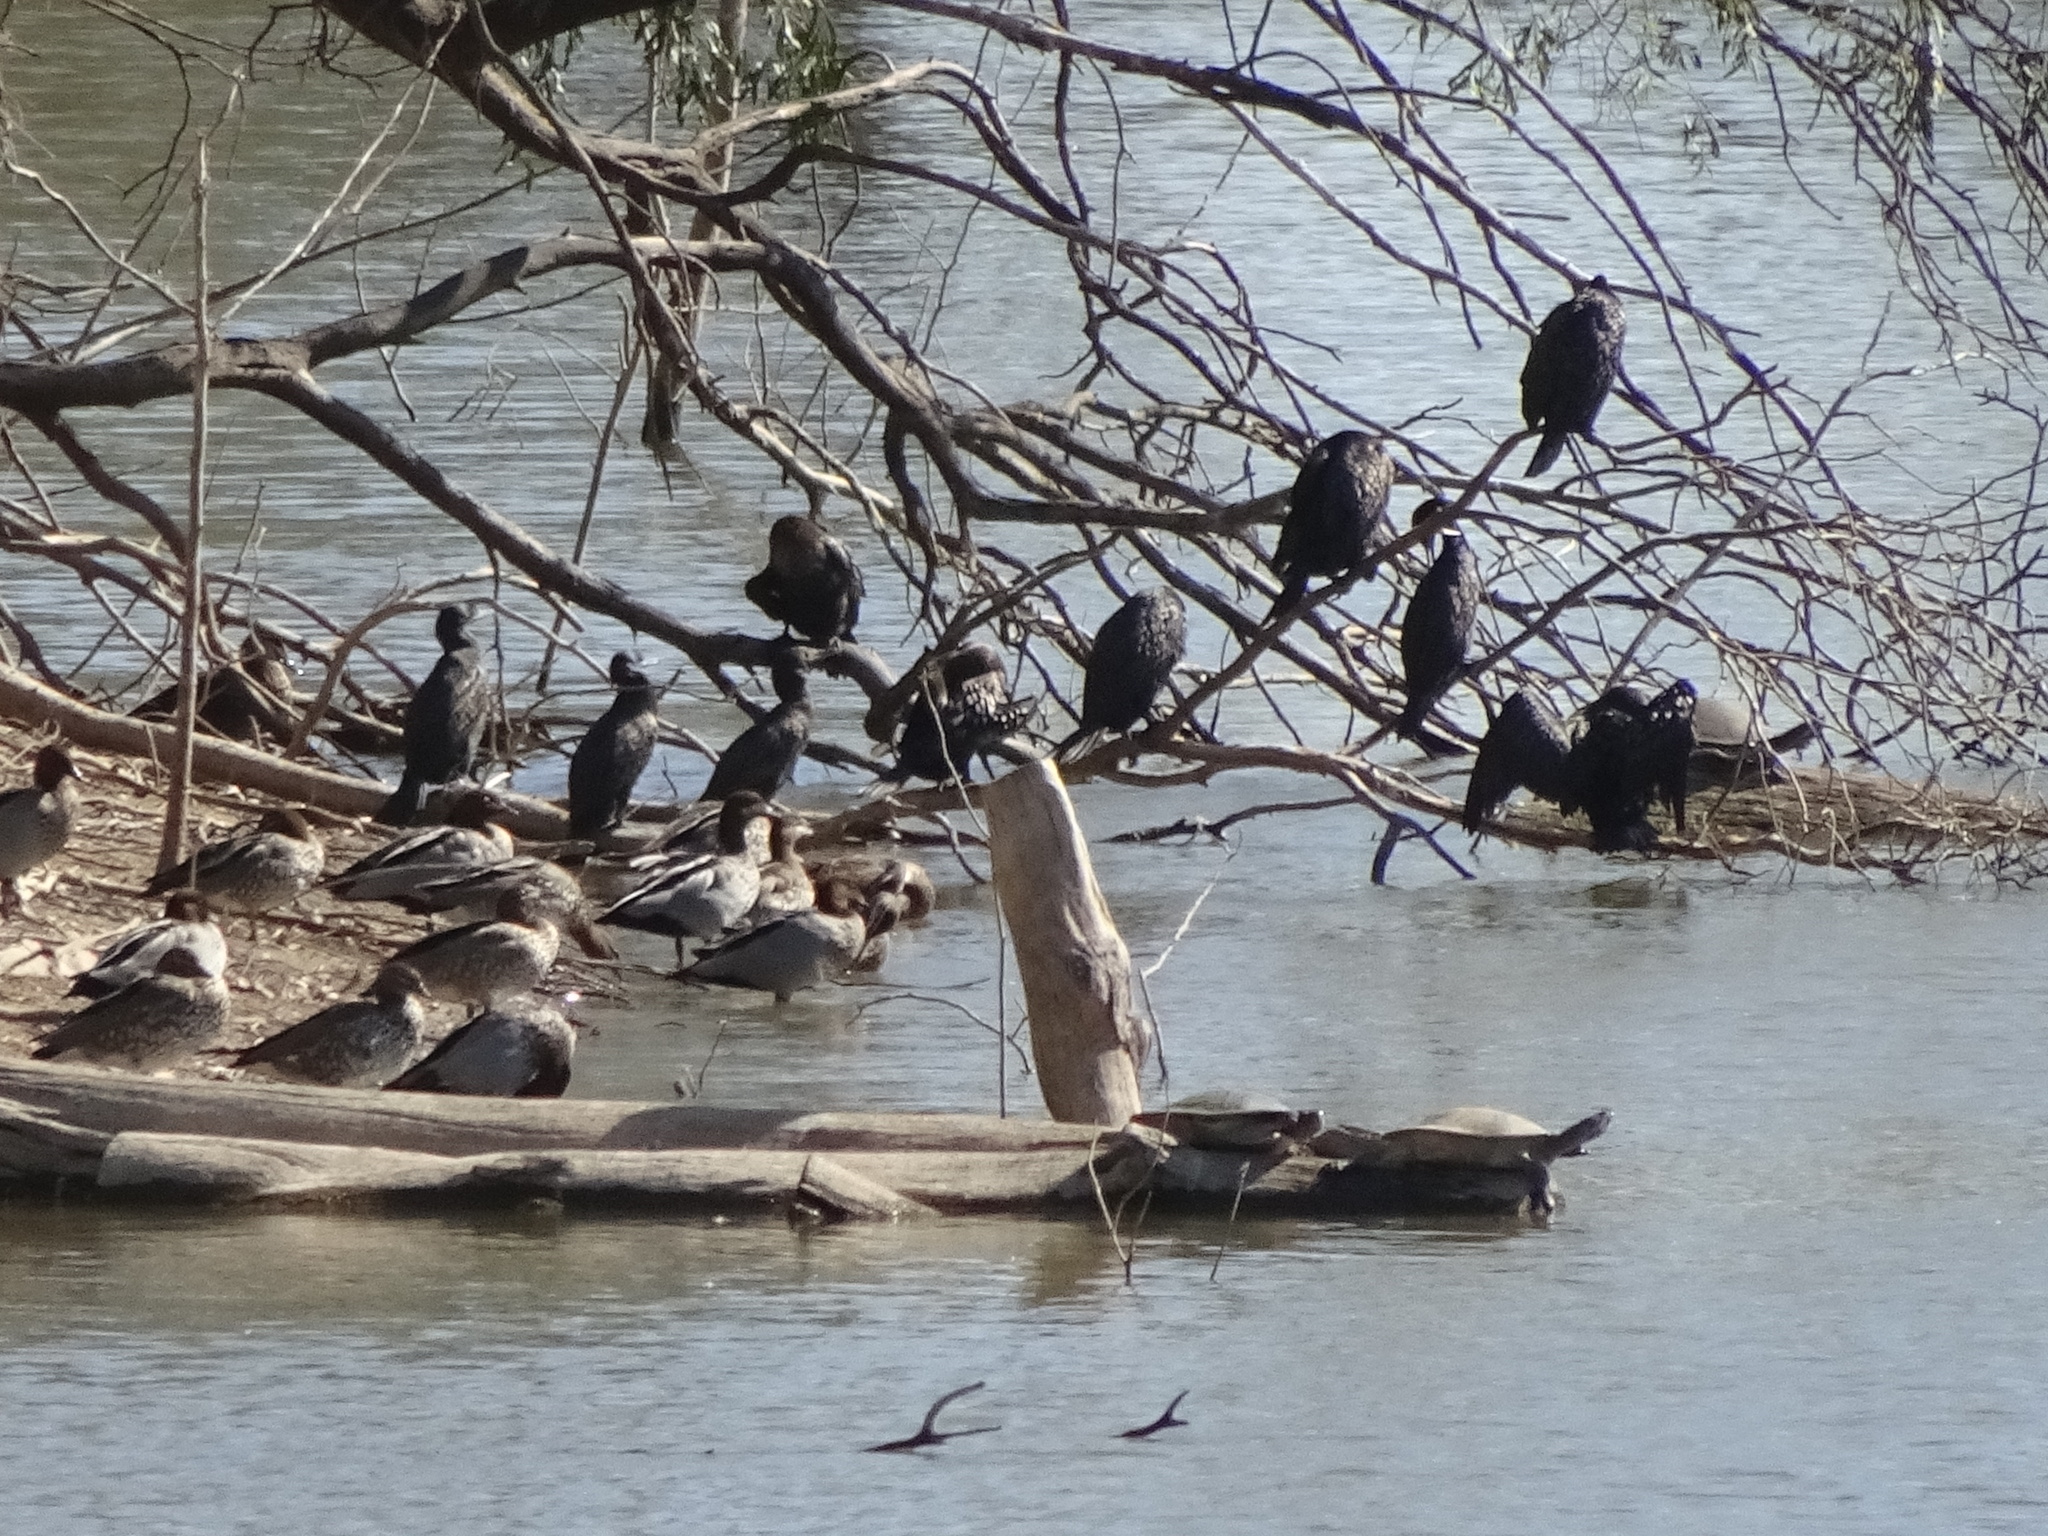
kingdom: Animalia
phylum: Chordata
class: Aves
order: Suliformes
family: Phalacrocoracidae
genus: Phalacrocorax
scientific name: Phalacrocorax sulcirostris
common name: Little black cormorant
